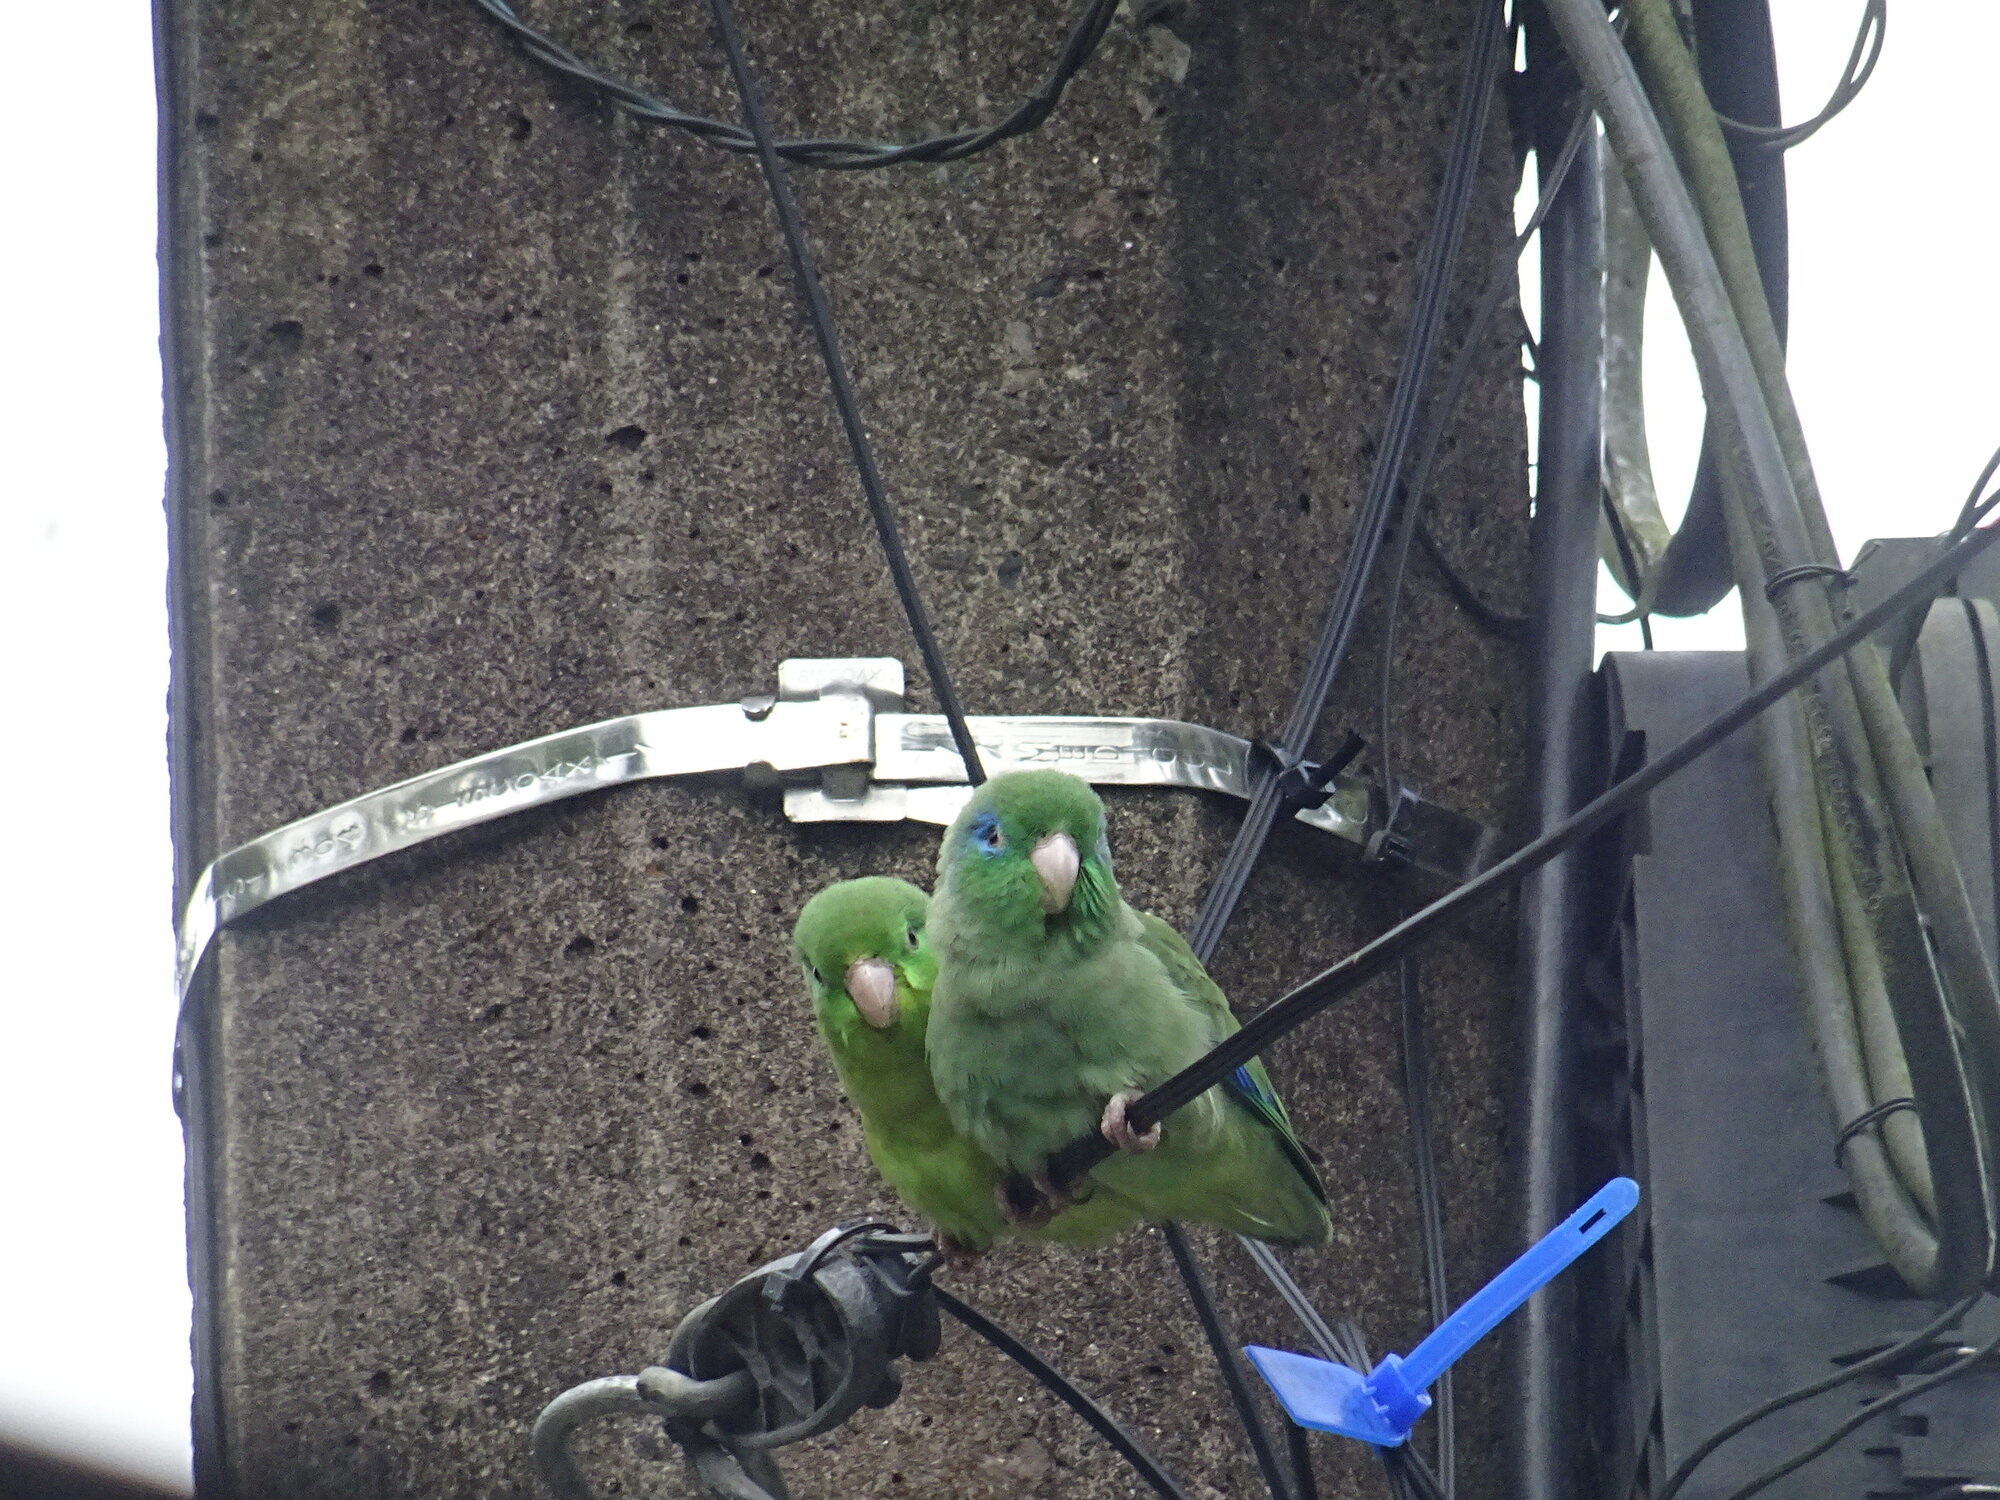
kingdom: Animalia
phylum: Chordata
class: Aves
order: Psittaciformes
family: Psittacidae
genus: Forpus
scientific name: Forpus conspicillatus
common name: Spectacled parrotlet
